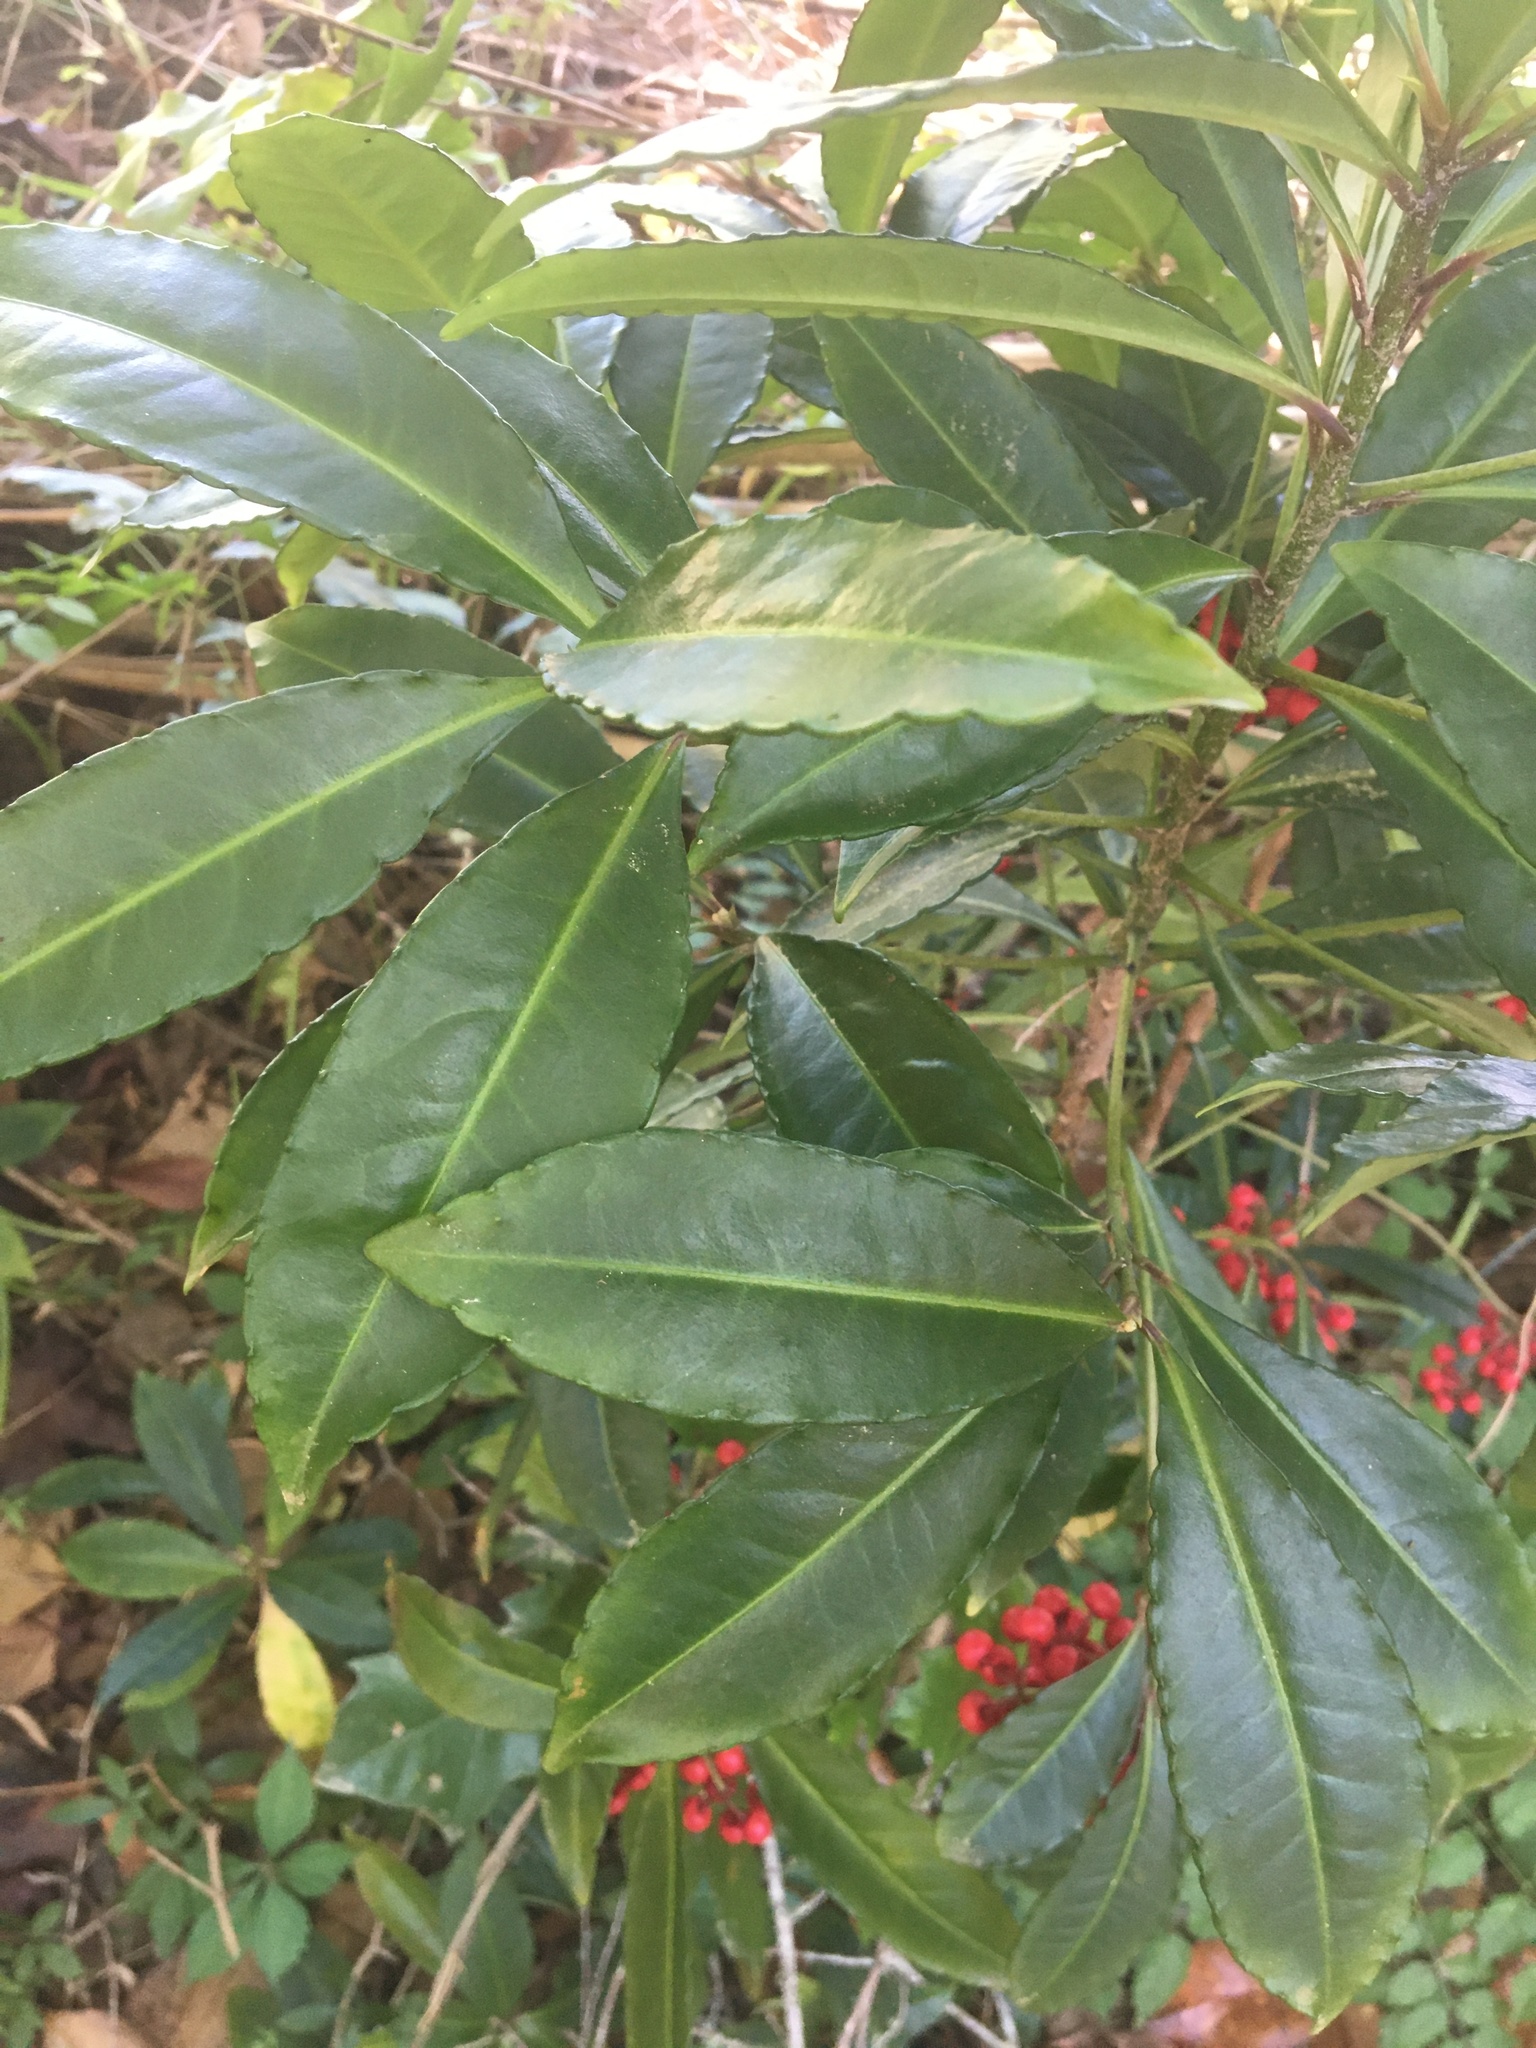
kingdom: Plantae
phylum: Tracheophyta
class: Magnoliopsida
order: Ericales
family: Primulaceae
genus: Ardisia
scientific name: Ardisia crenata
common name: Hen's eyes
